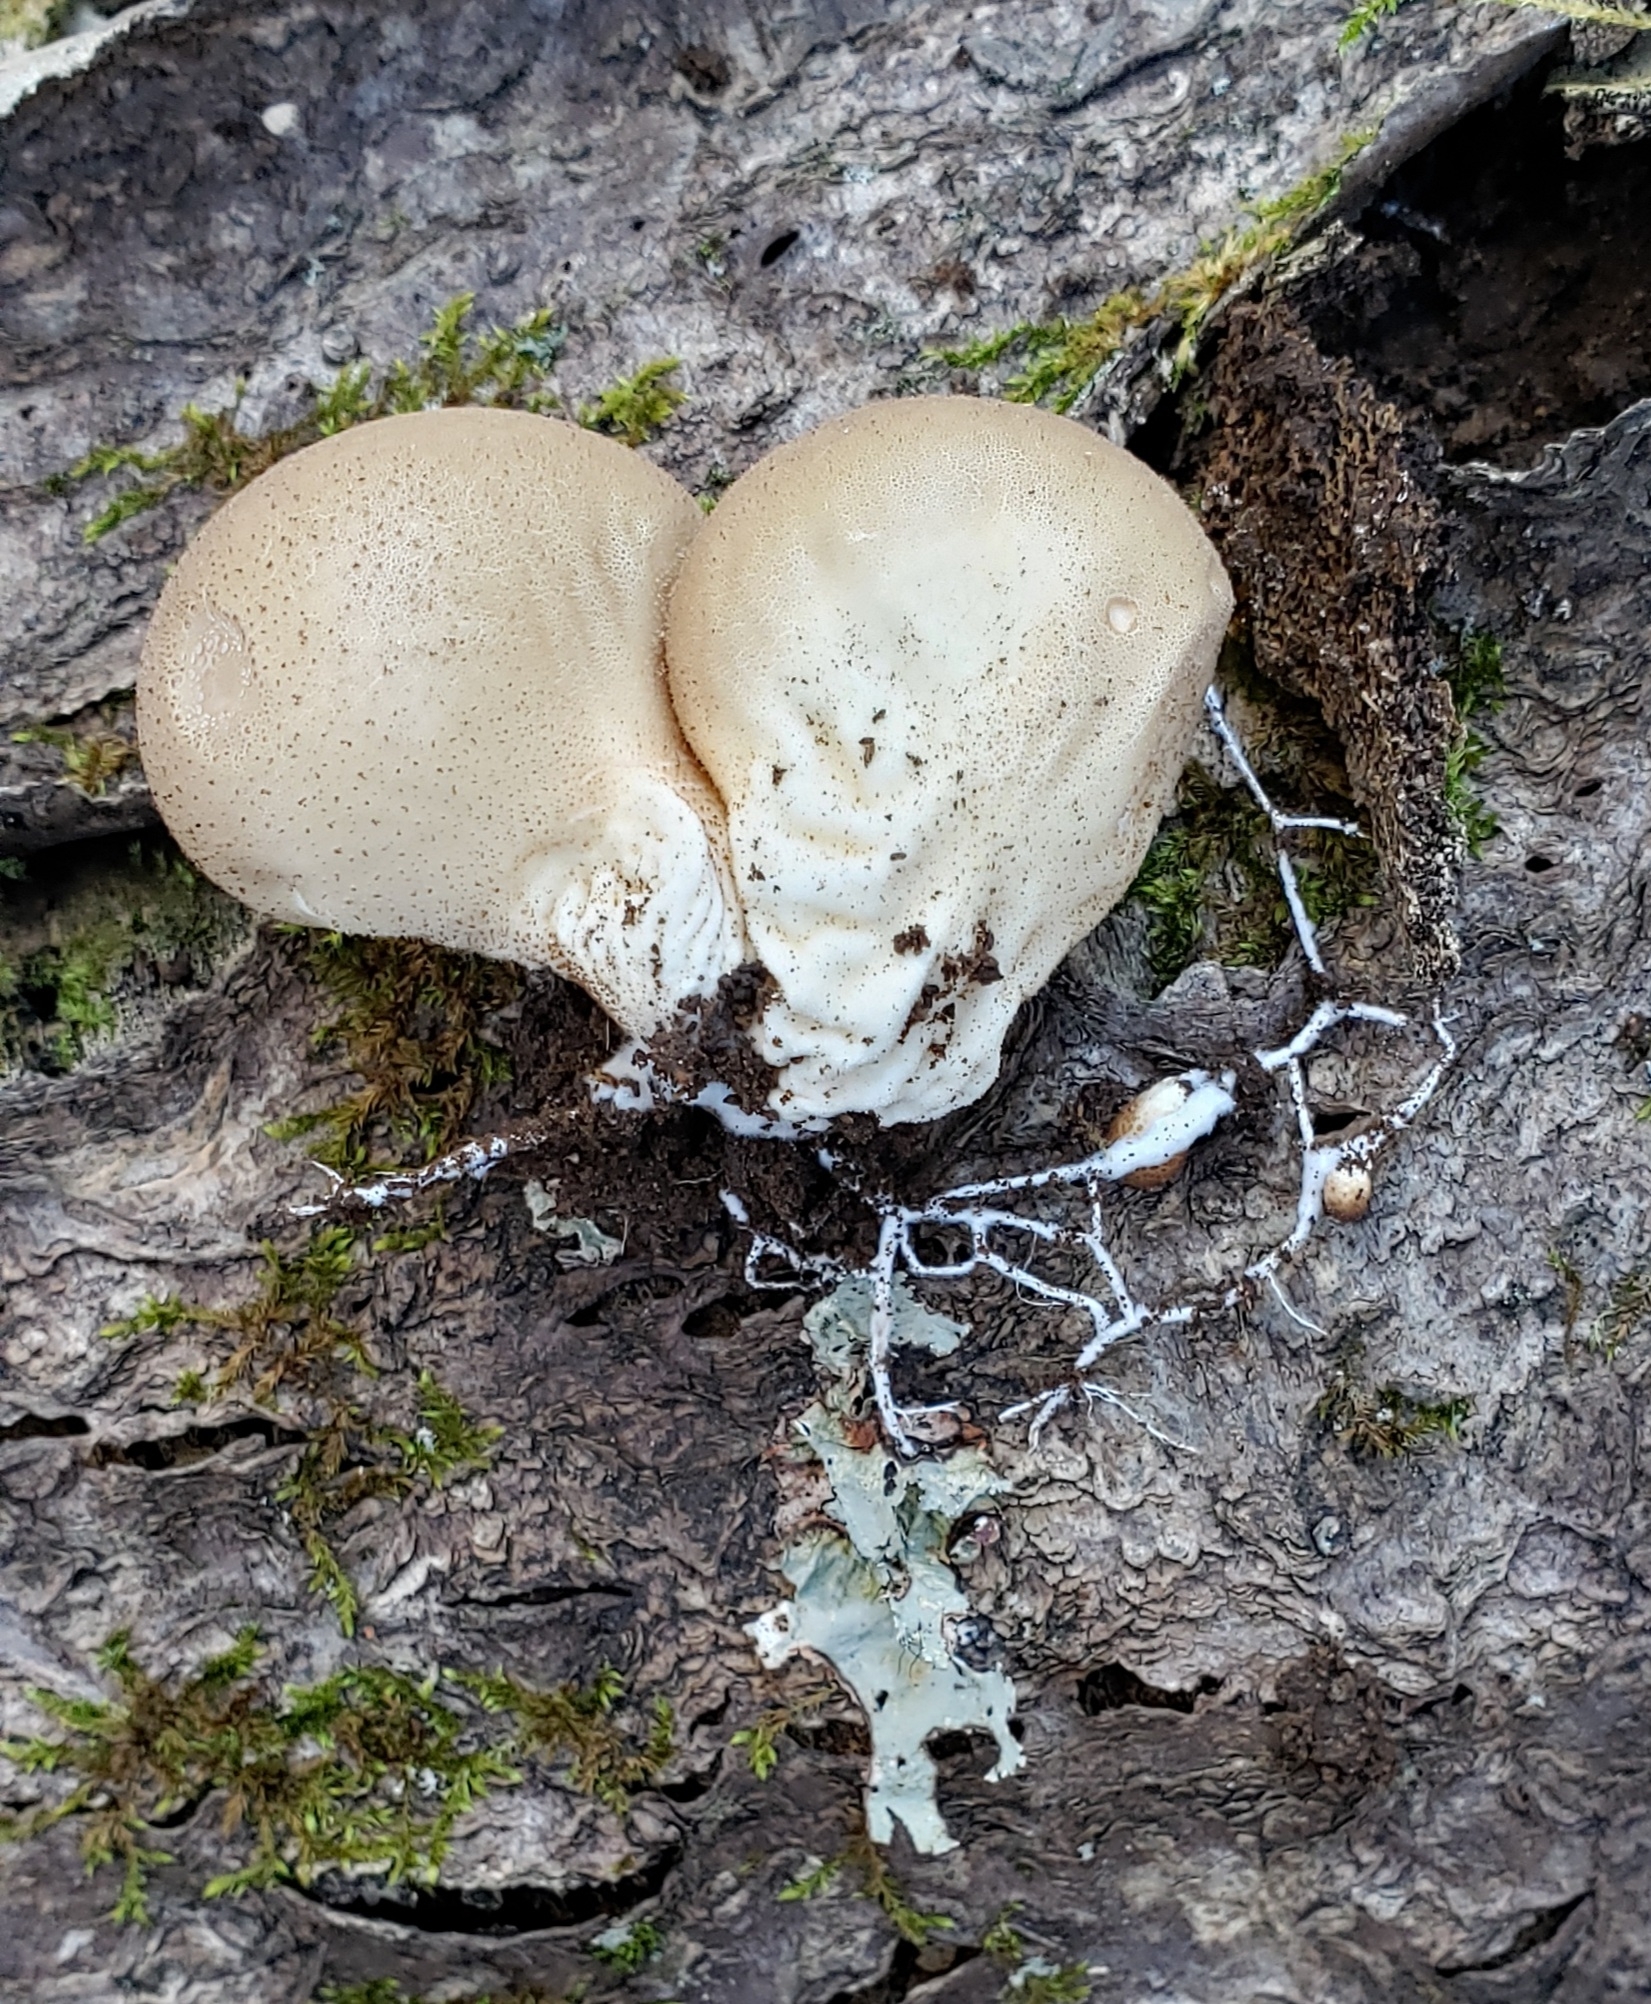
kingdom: Fungi
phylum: Basidiomycota
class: Agaricomycetes
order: Agaricales
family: Lycoperdaceae
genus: Apioperdon
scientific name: Apioperdon pyriforme
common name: Pear-shaped puffball
